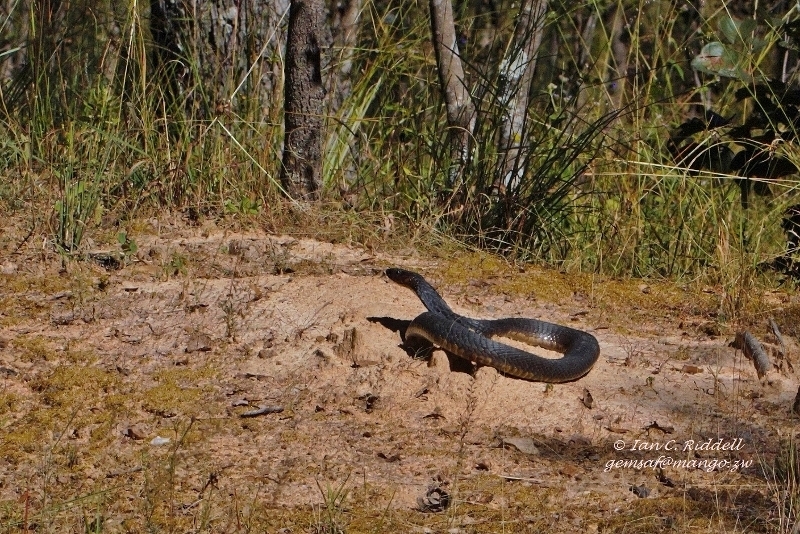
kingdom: Animalia
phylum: Chordata
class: Squamata
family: Elapidae
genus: Naja
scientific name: Naja annulifera
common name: Snouted cobra
